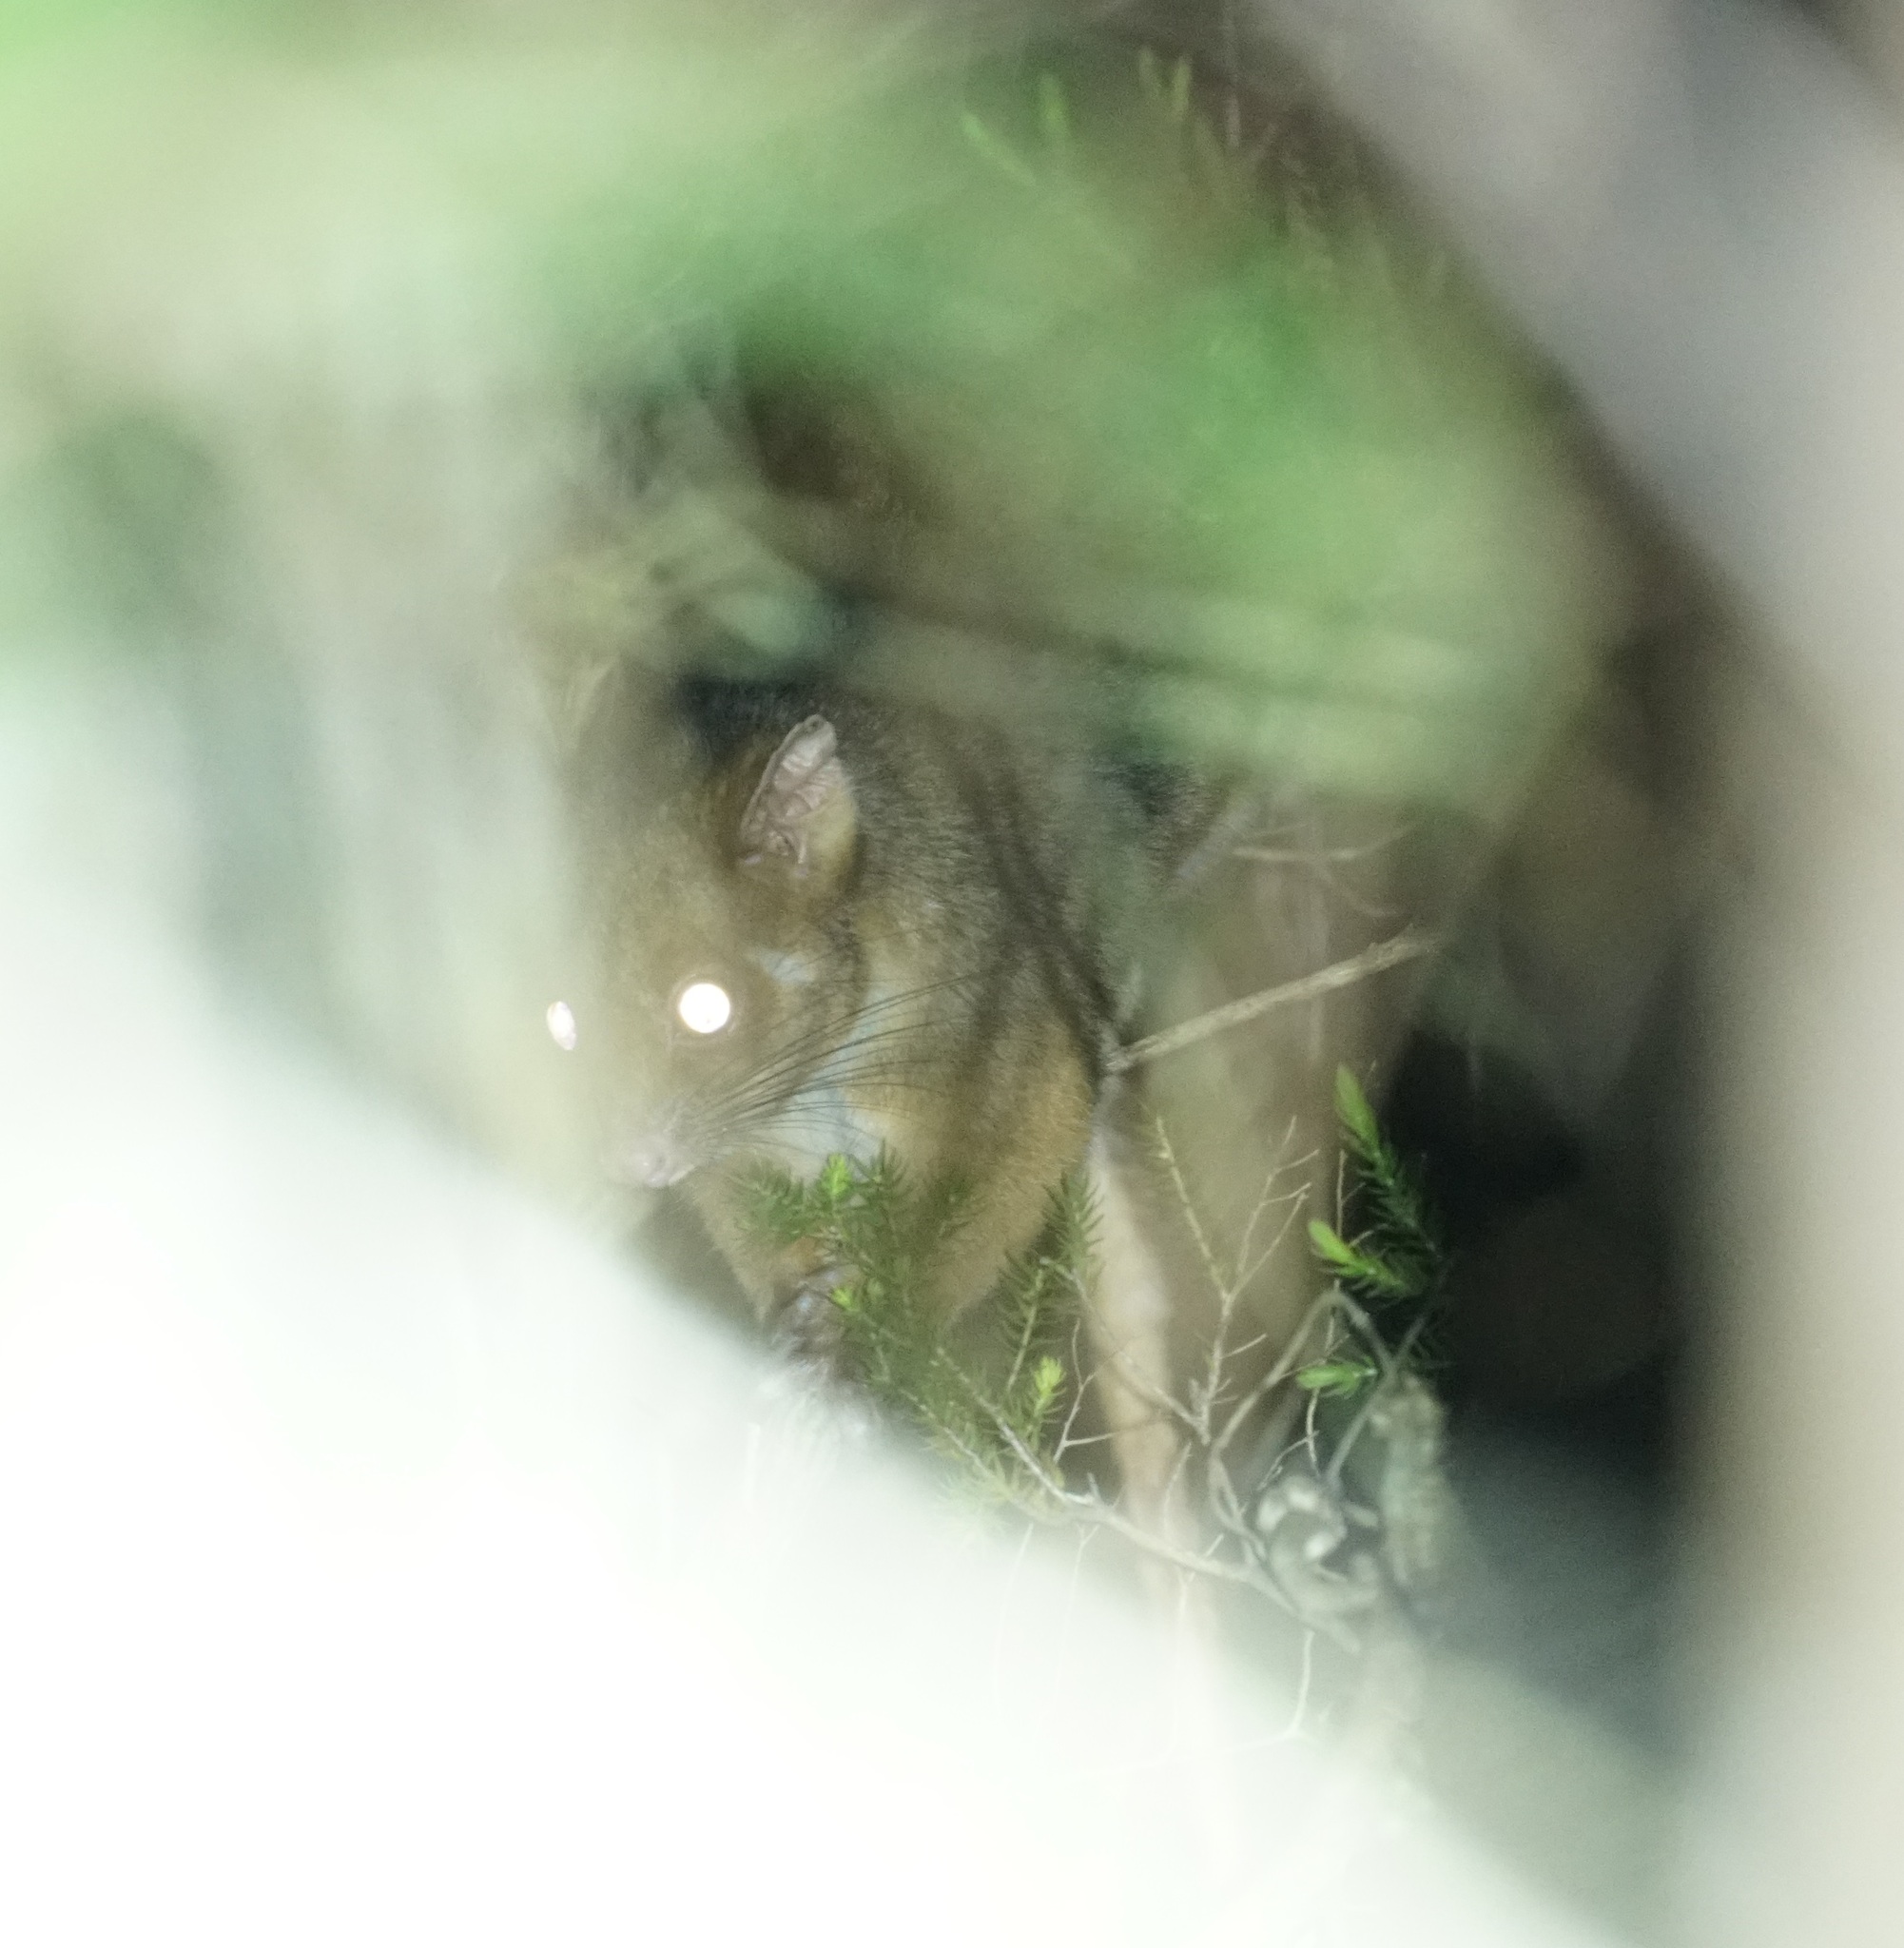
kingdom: Animalia
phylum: Chordata
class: Mammalia
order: Diprotodontia
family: Pseudocheiridae
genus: Pseudocheirus
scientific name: Pseudocheirus peregrinus
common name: Common ringtail possum
